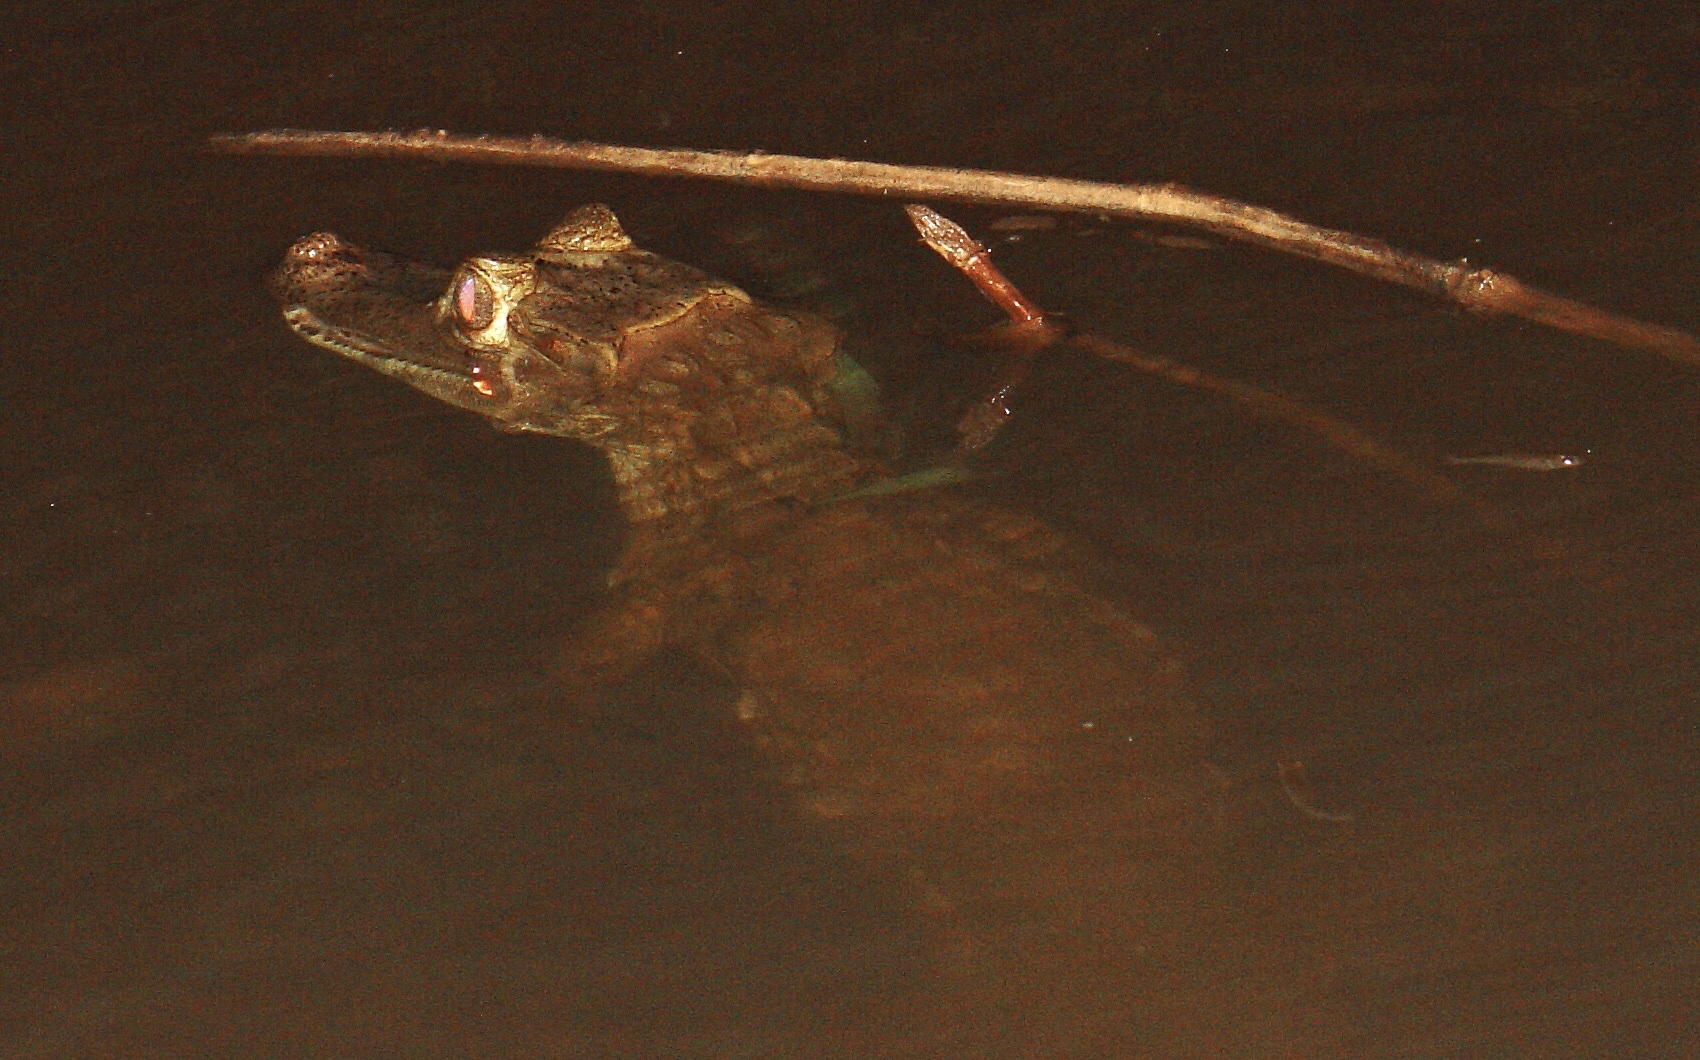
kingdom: Animalia
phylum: Chordata
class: Crocodylia
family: Alligatoridae
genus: Paleosuchus
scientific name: Paleosuchus trigonatus
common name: Schneider's smooth-fronted caiman
